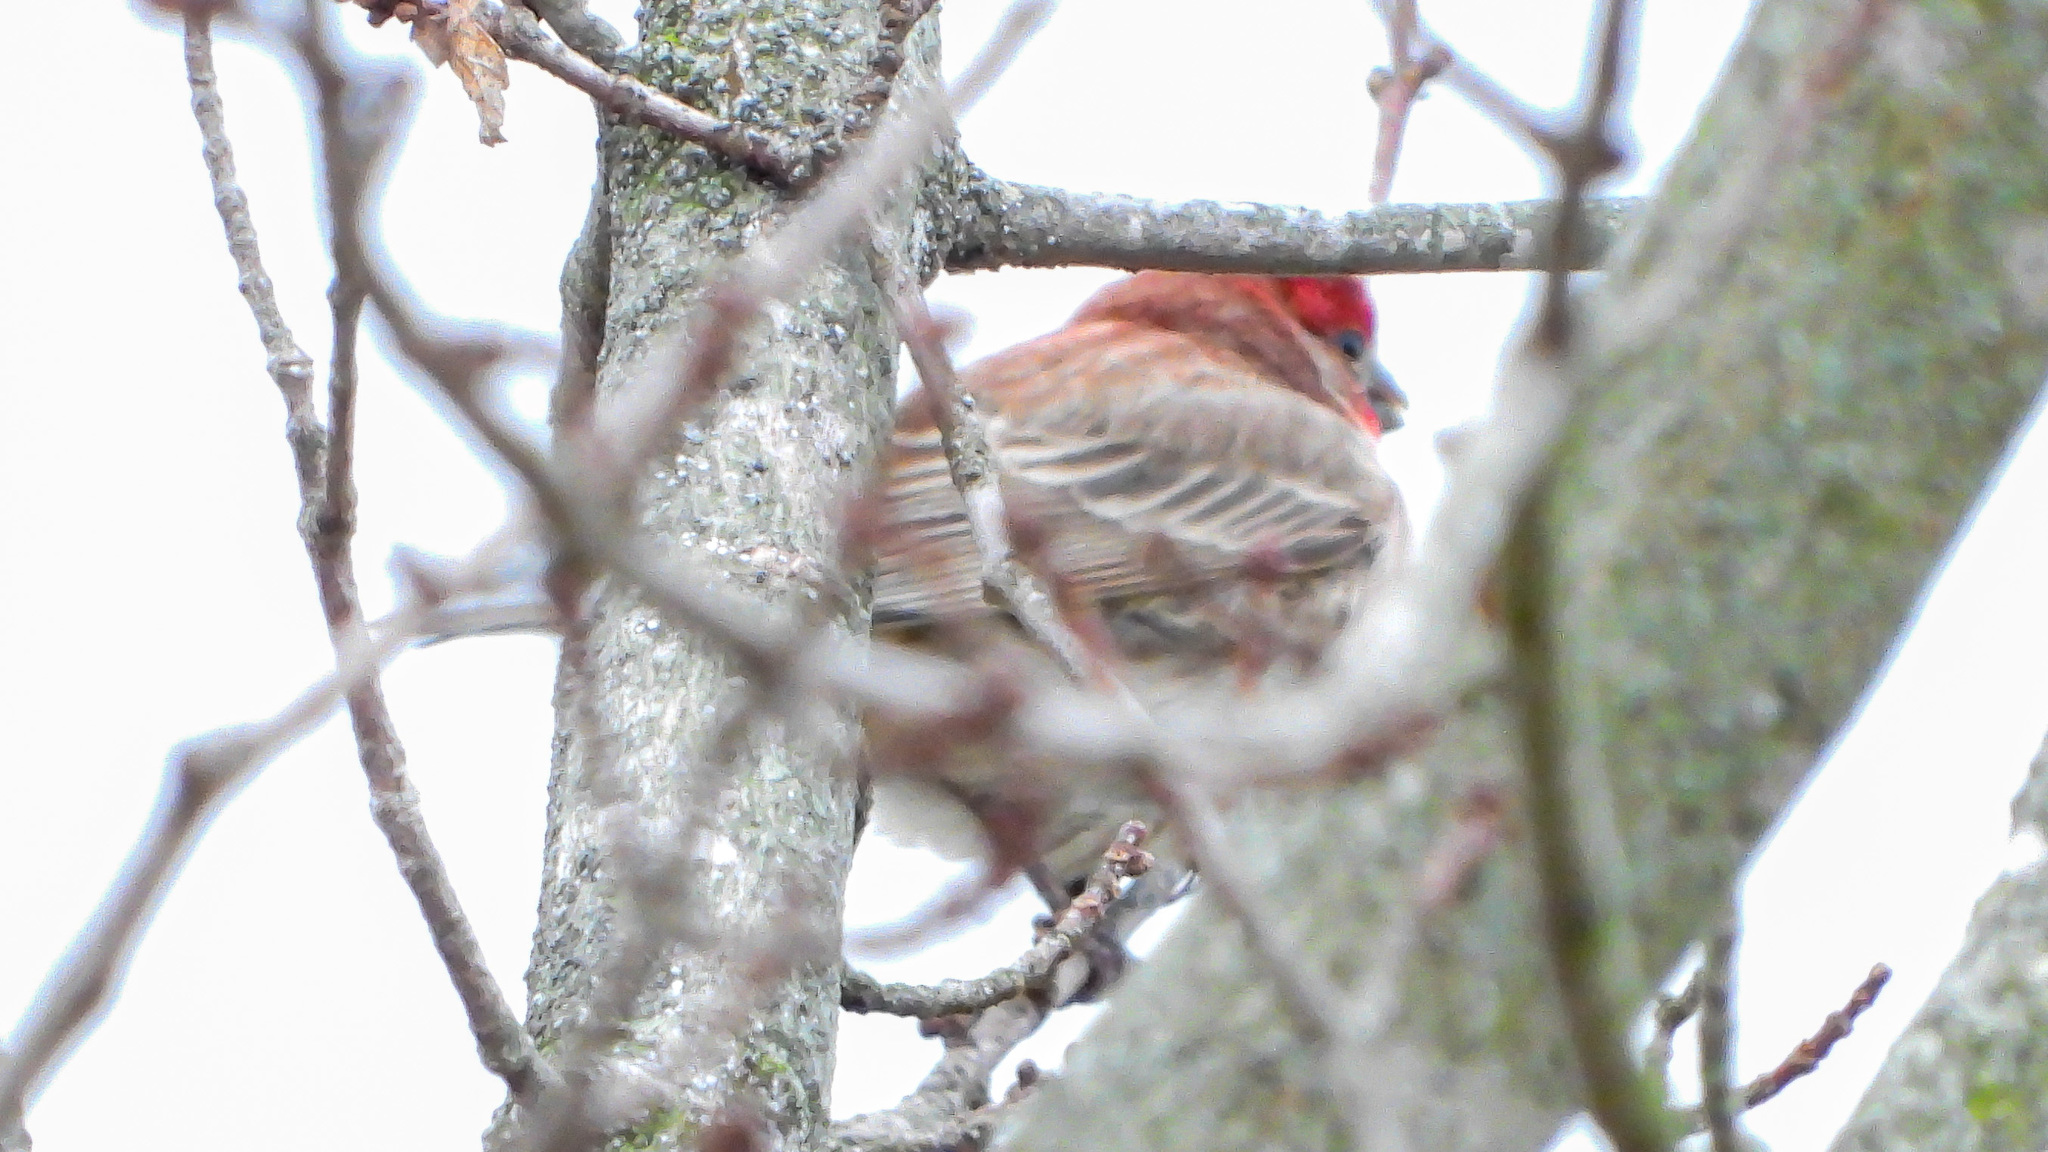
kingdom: Animalia
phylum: Chordata
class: Aves
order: Passeriformes
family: Fringillidae
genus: Haemorhous
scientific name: Haemorhous mexicanus
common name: House finch
